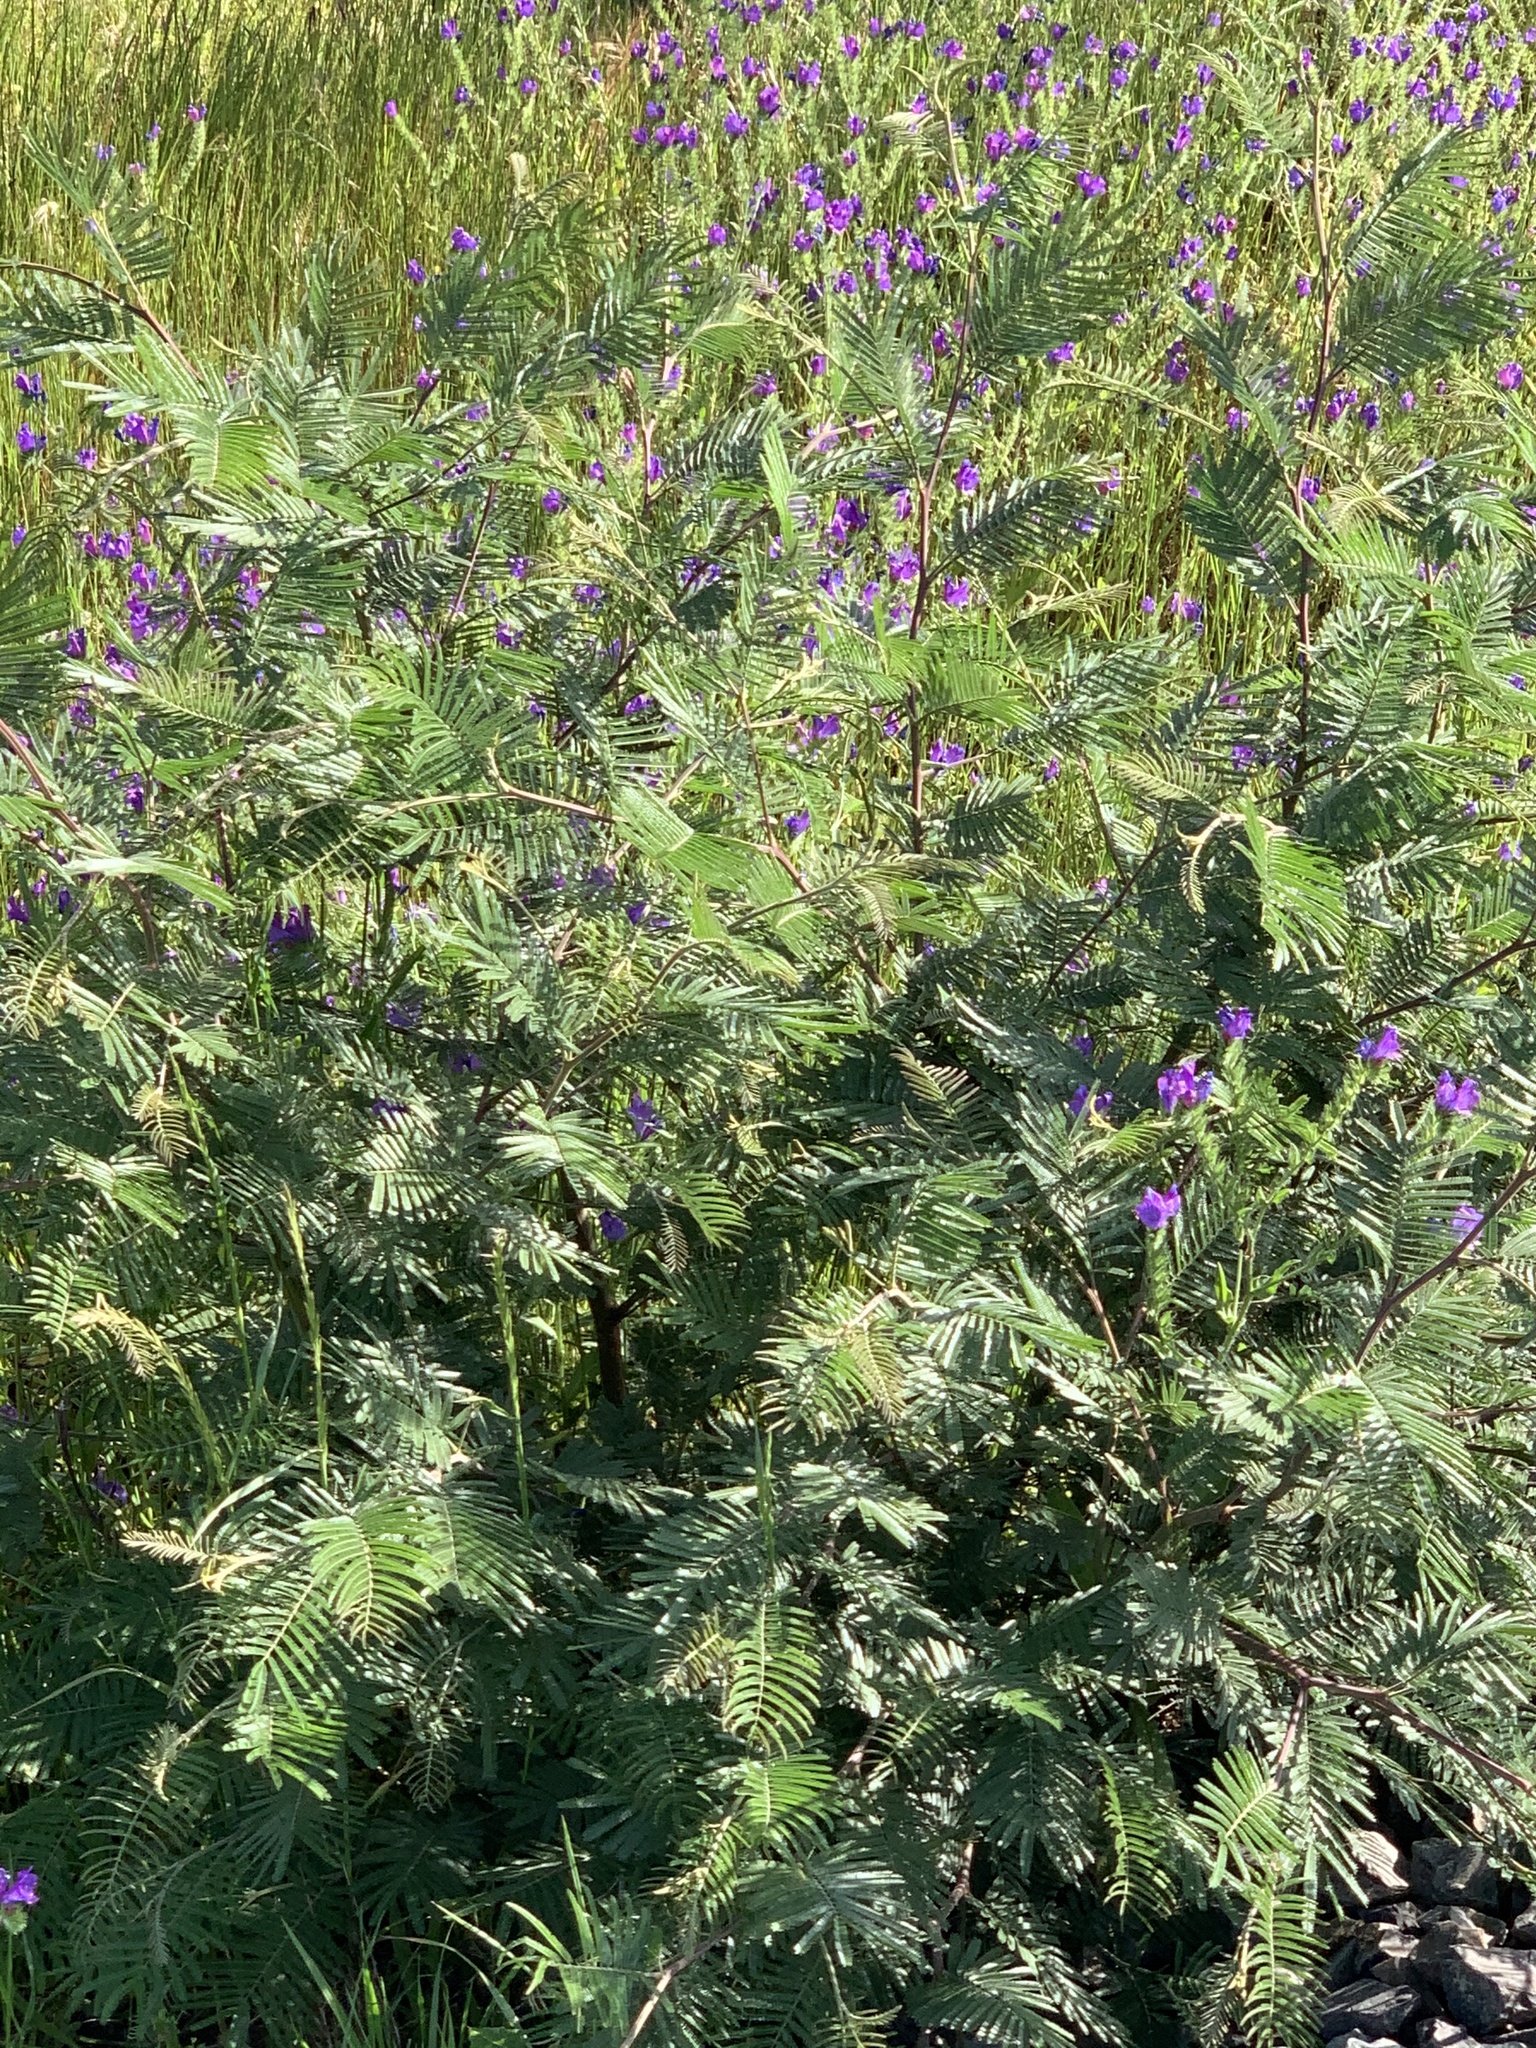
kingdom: Plantae
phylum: Tracheophyta
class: Magnoliopsida
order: Asterales
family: Asteraceae
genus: Cirsium
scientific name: Cirsium vulgare
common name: Bull thistle
